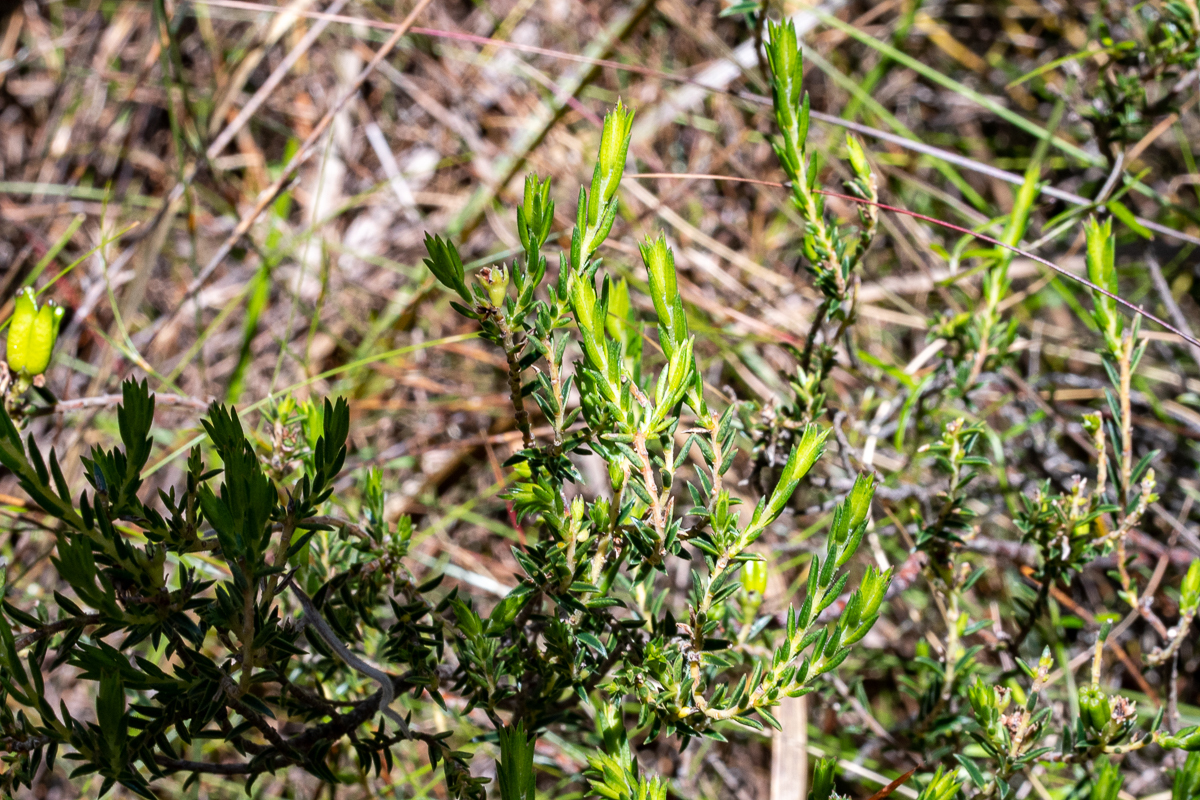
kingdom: Plantae
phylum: Tracheophyta
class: Magnoliopsida
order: Sapindales
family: Rutaceae
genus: Diosma
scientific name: Diosma oppositifolia
